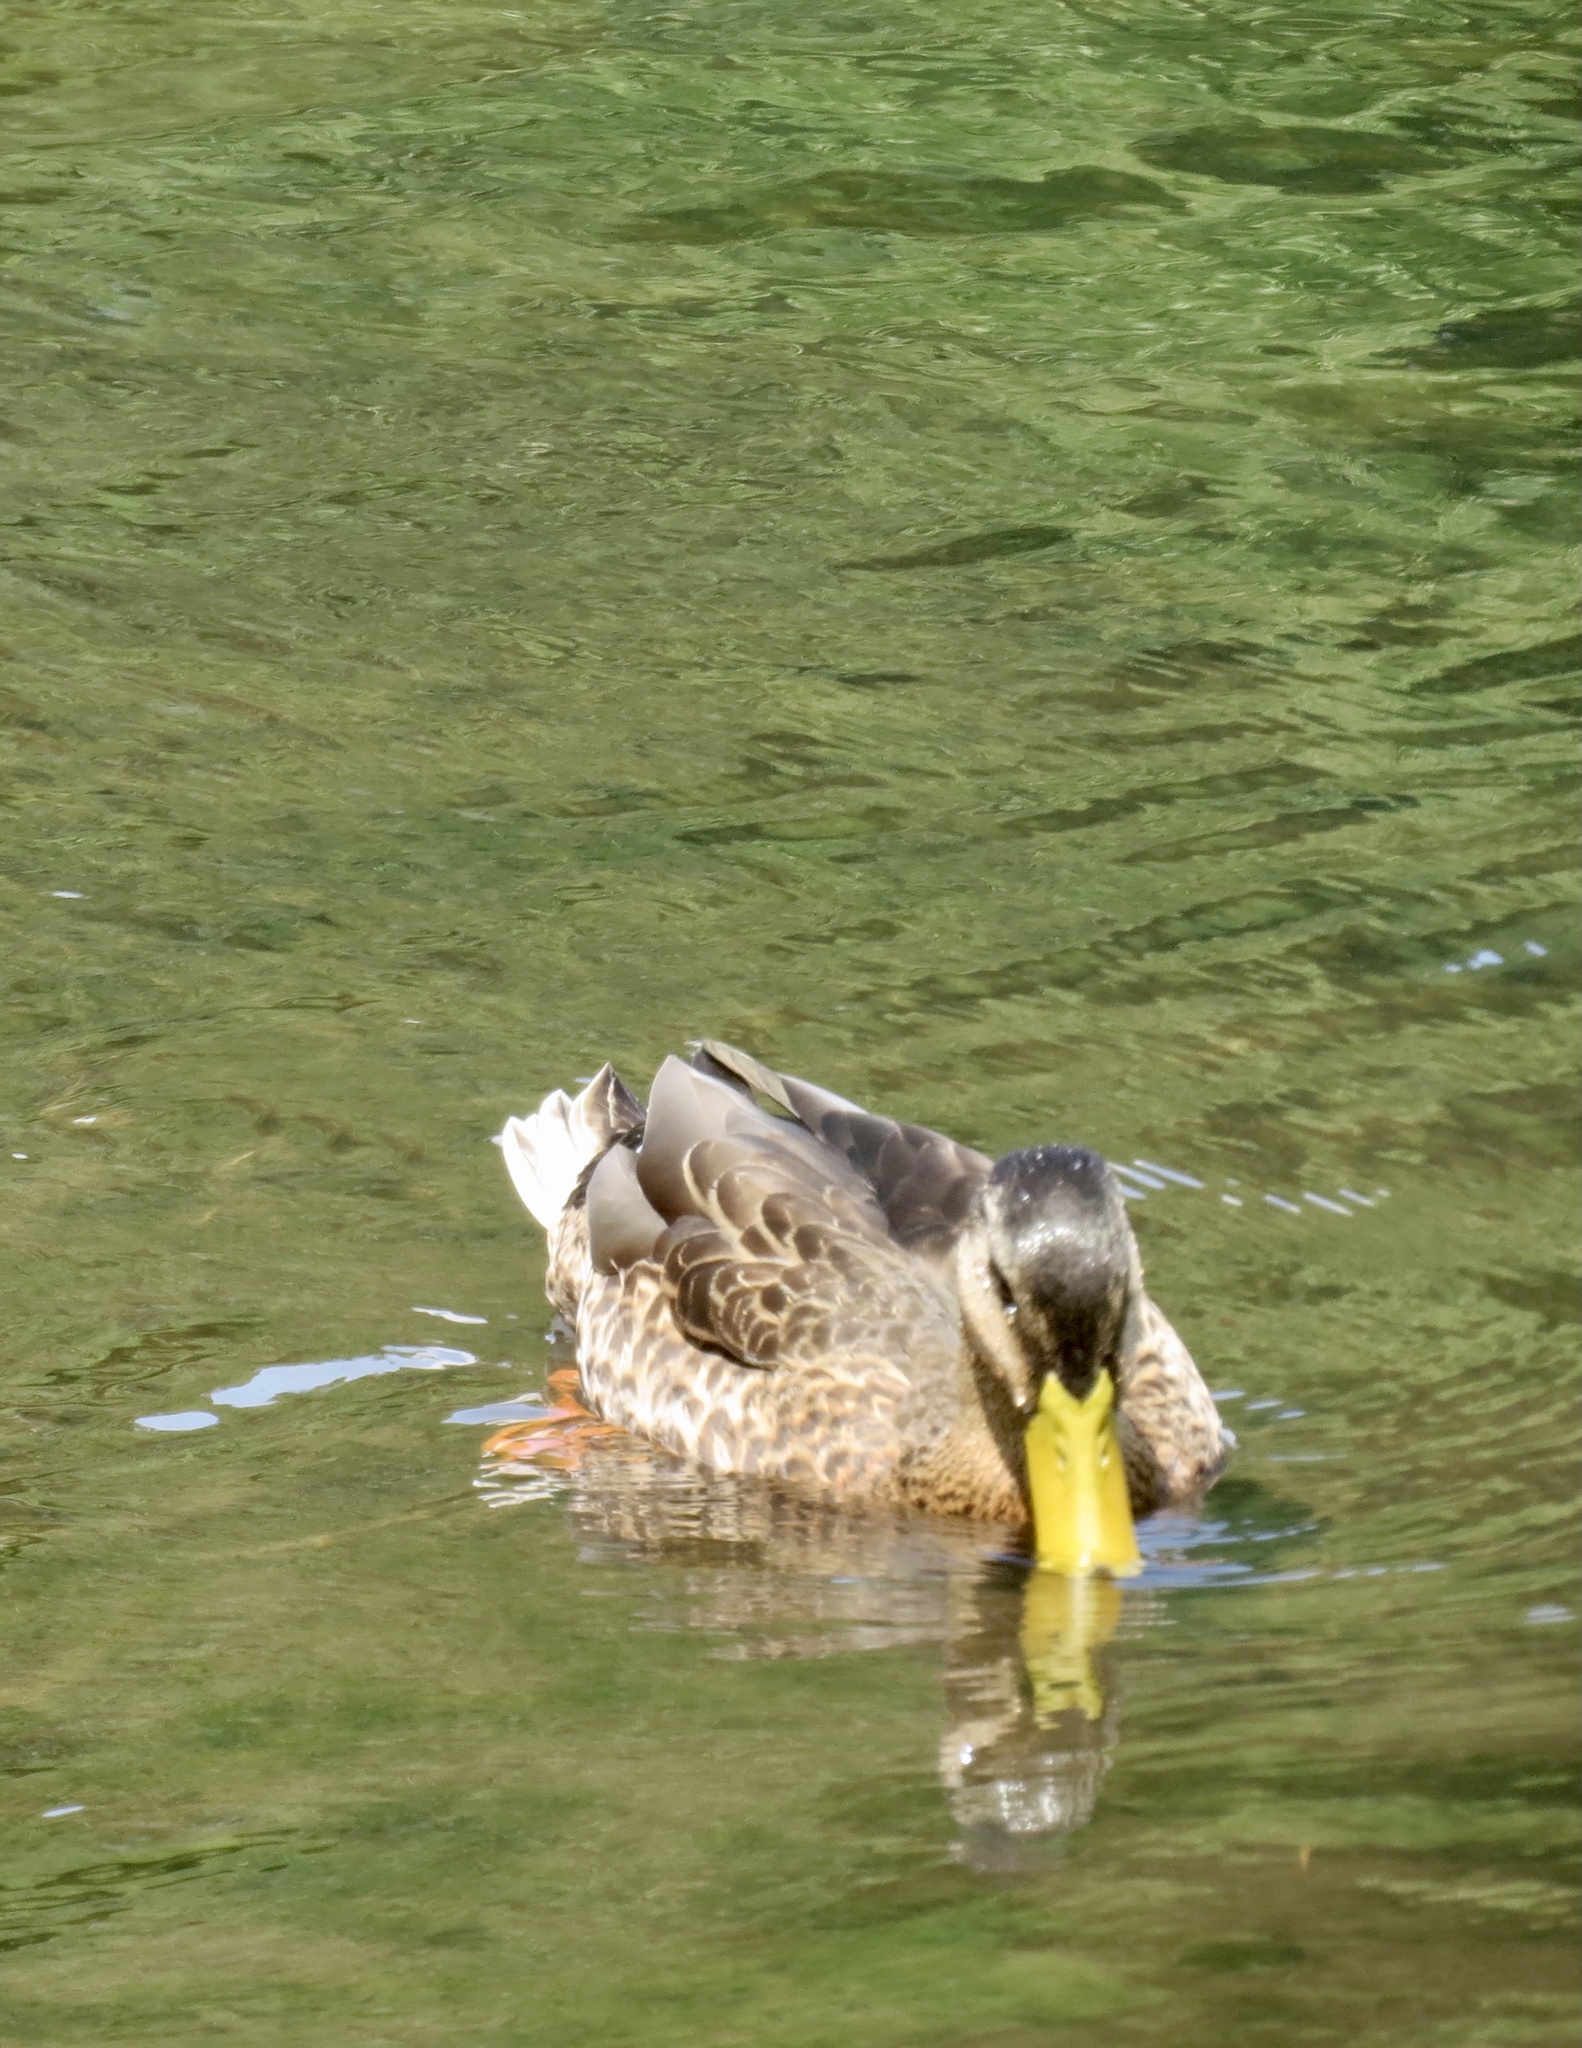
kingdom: Animalia
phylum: Chordata
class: Aves
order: Anseriformes
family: Anatidae
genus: Anas
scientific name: Anas platyrhynchos
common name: Mallard
